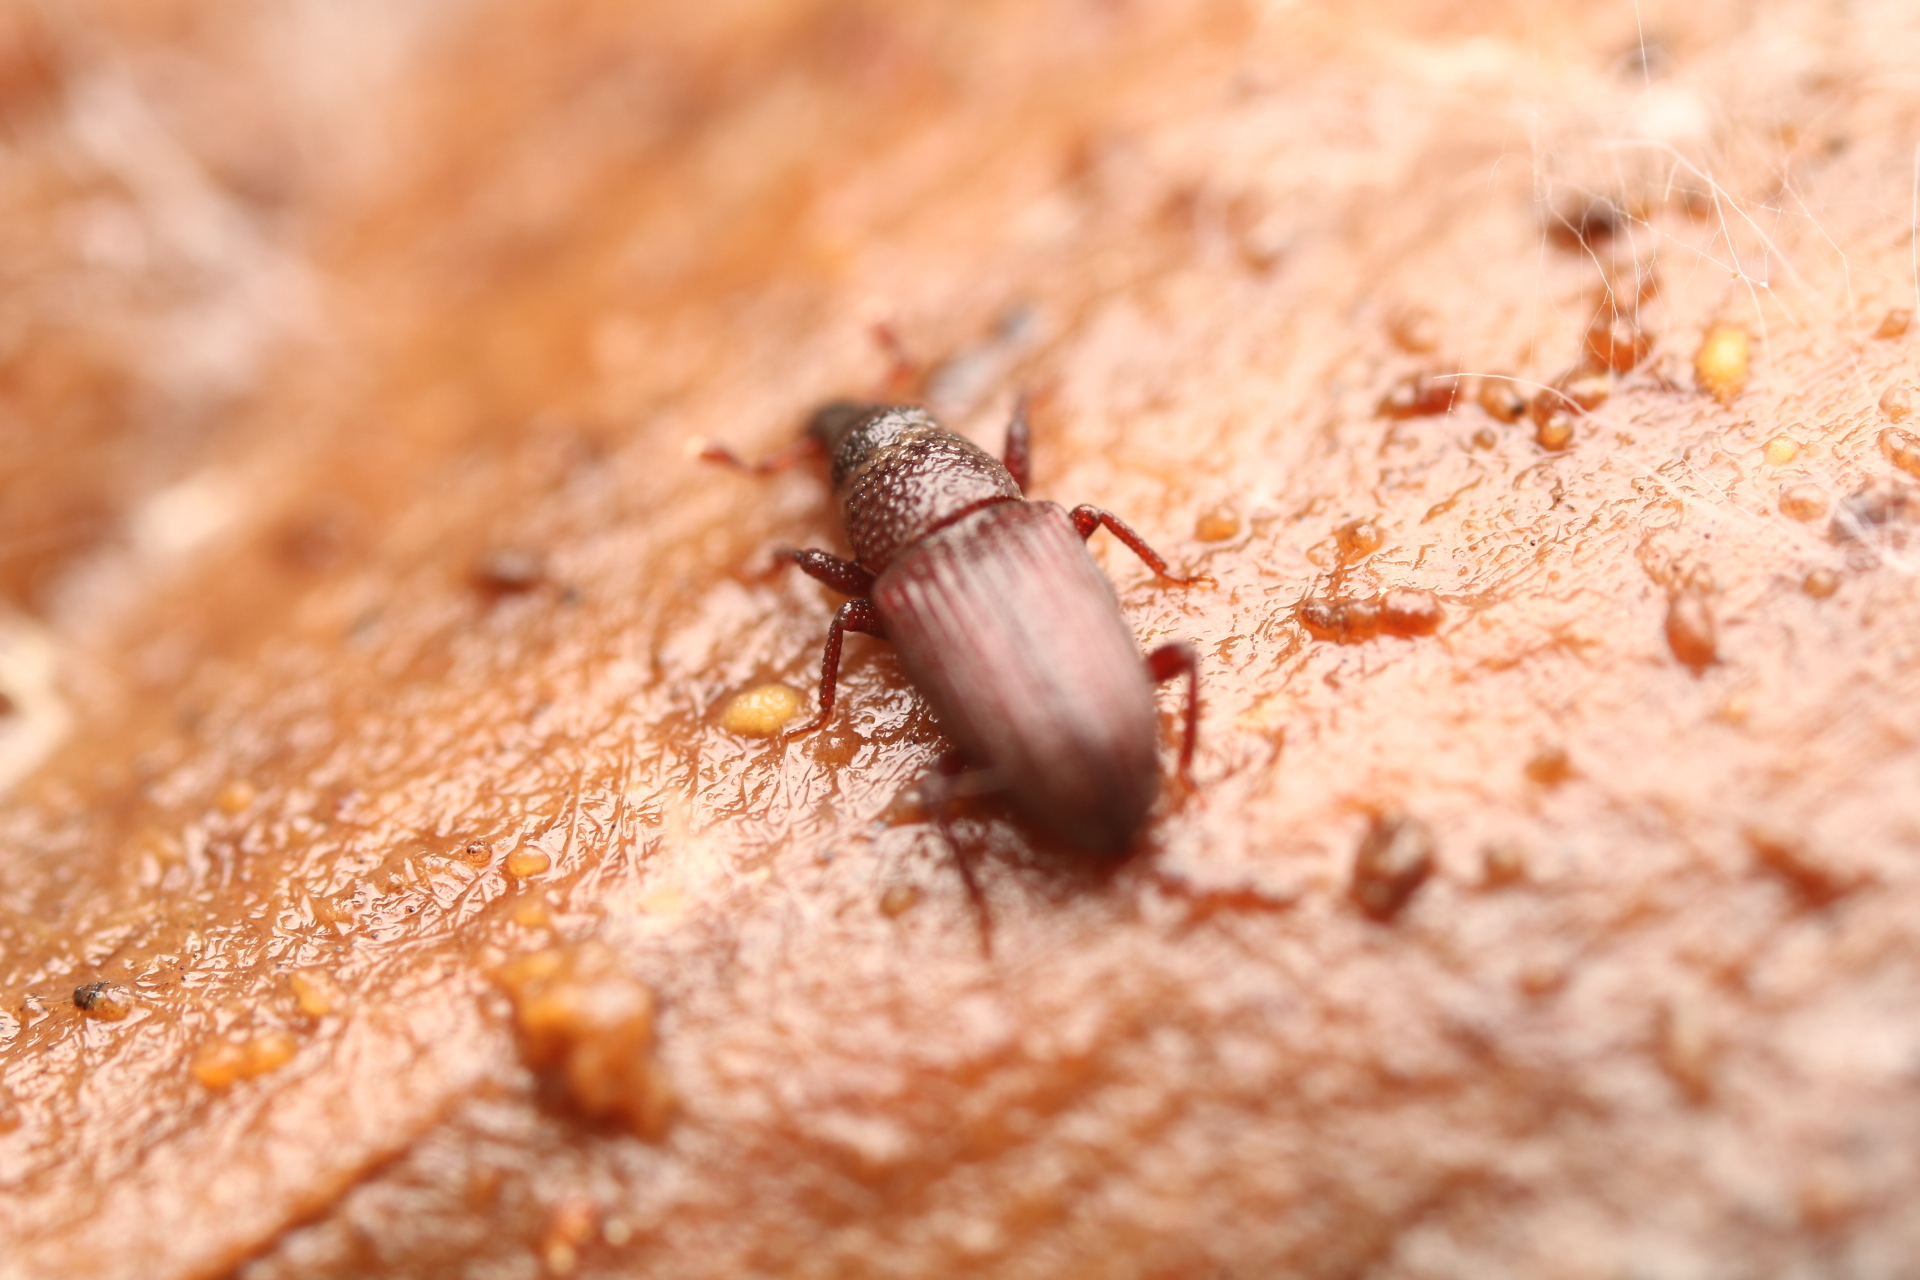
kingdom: Animalia
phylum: Arthropoda
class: Insecta
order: Coleoptera
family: Dryophthoridae
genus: Dryophthorus
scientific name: Dryophthorus americanus
